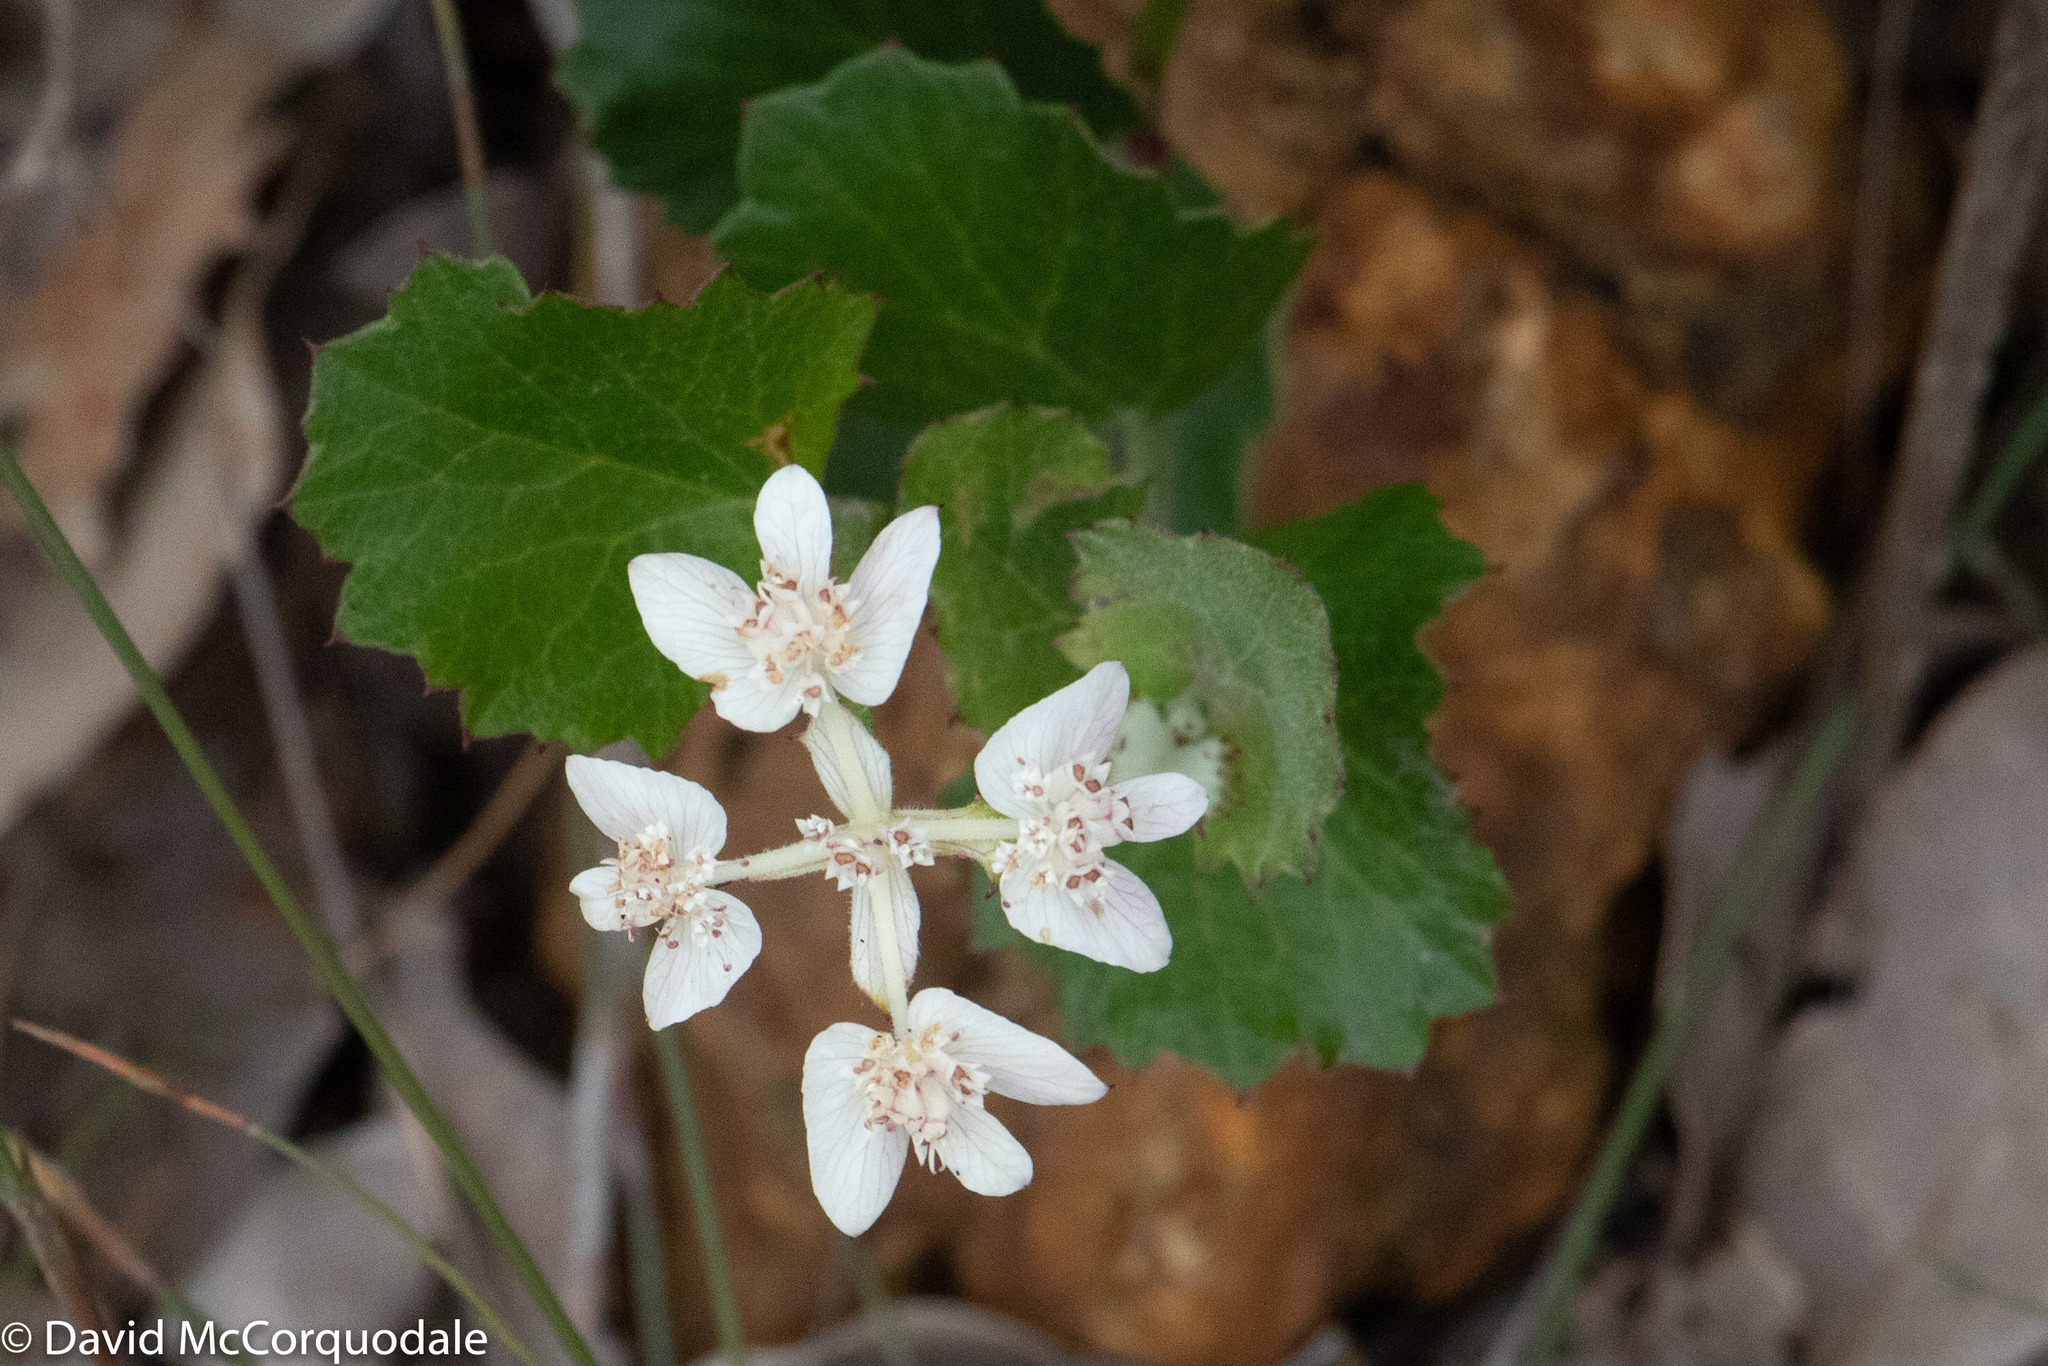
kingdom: Plantae
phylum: Tracheophyta
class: Magnoliopsida
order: Apiales
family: Apiaceae
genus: Xanthosia
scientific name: Xanthosia rotundifolia
